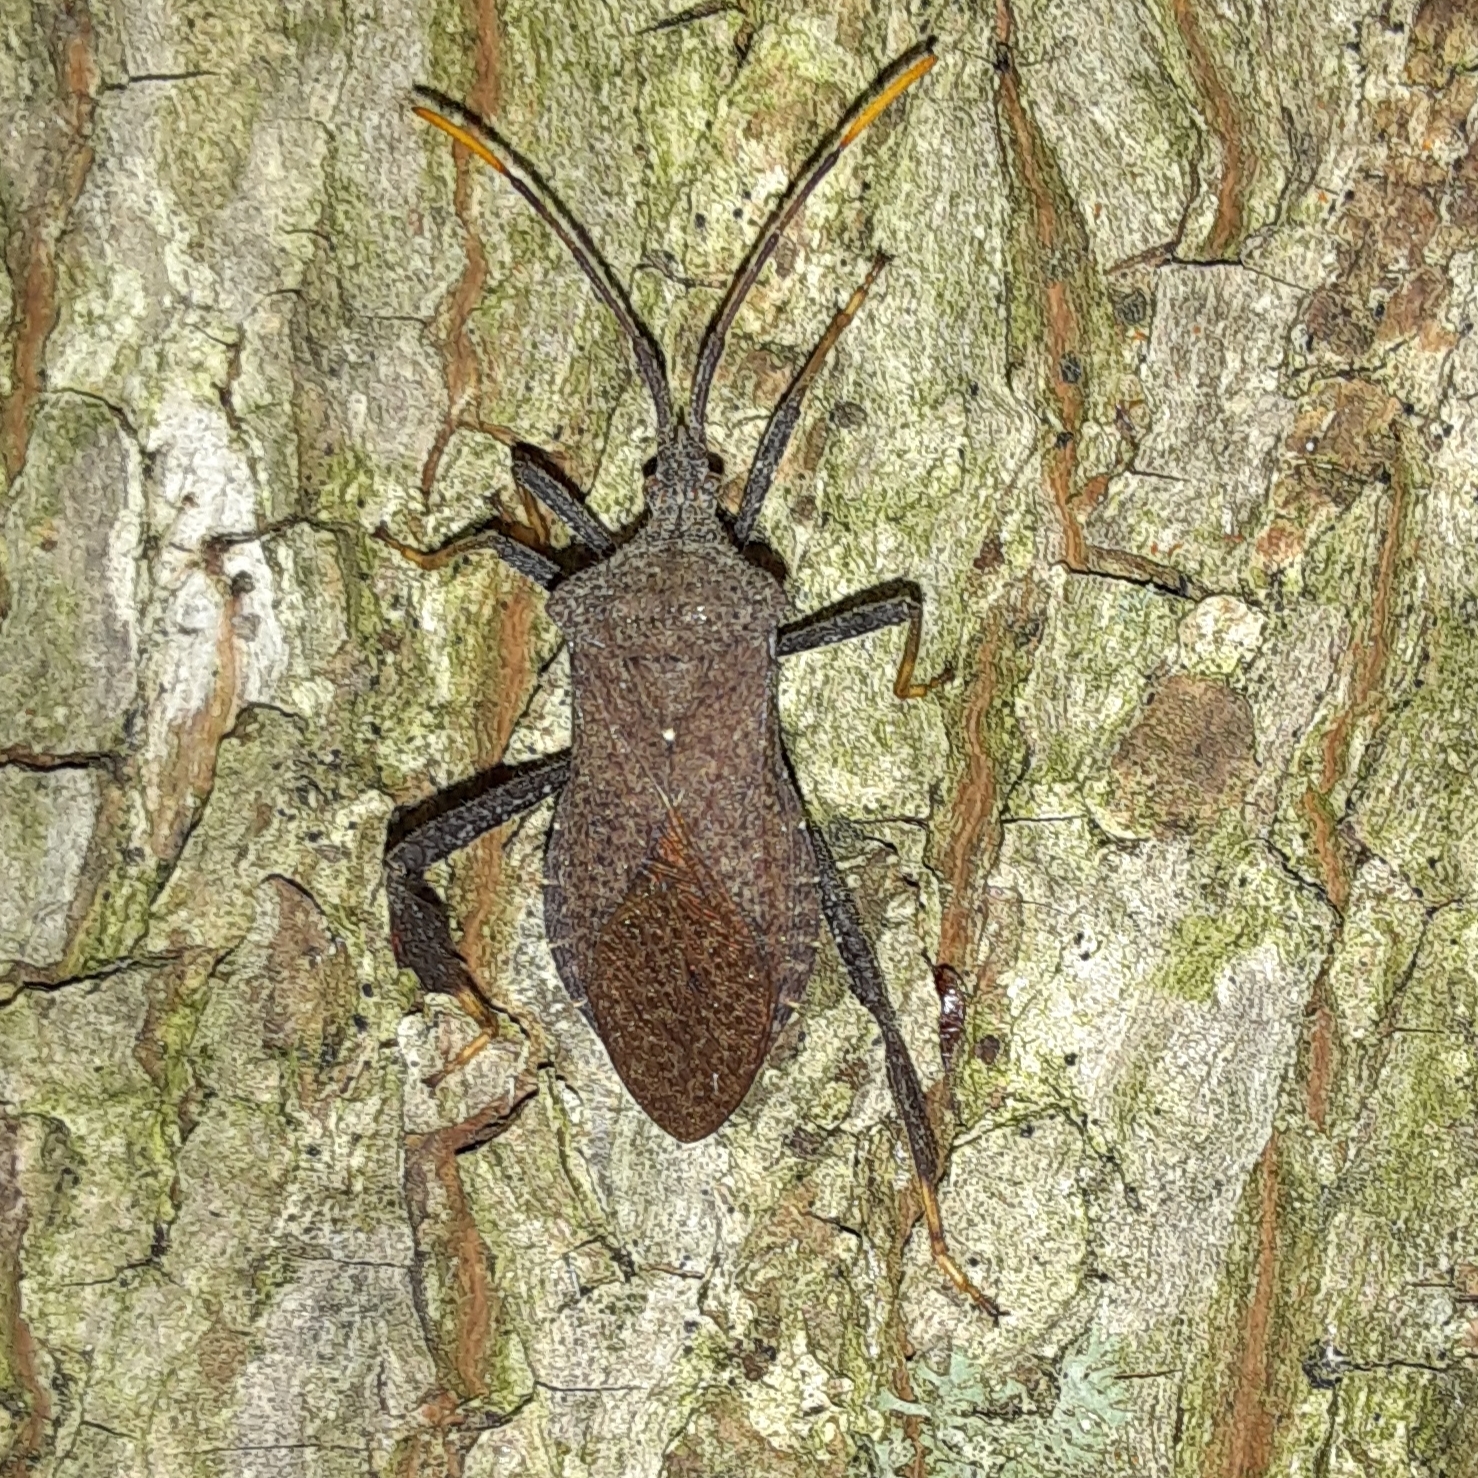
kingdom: Animalia
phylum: Arthropoda
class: Insecta
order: Hemiptera
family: Coreidae
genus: Acanthocephala
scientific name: Acanthocephala terminalis
